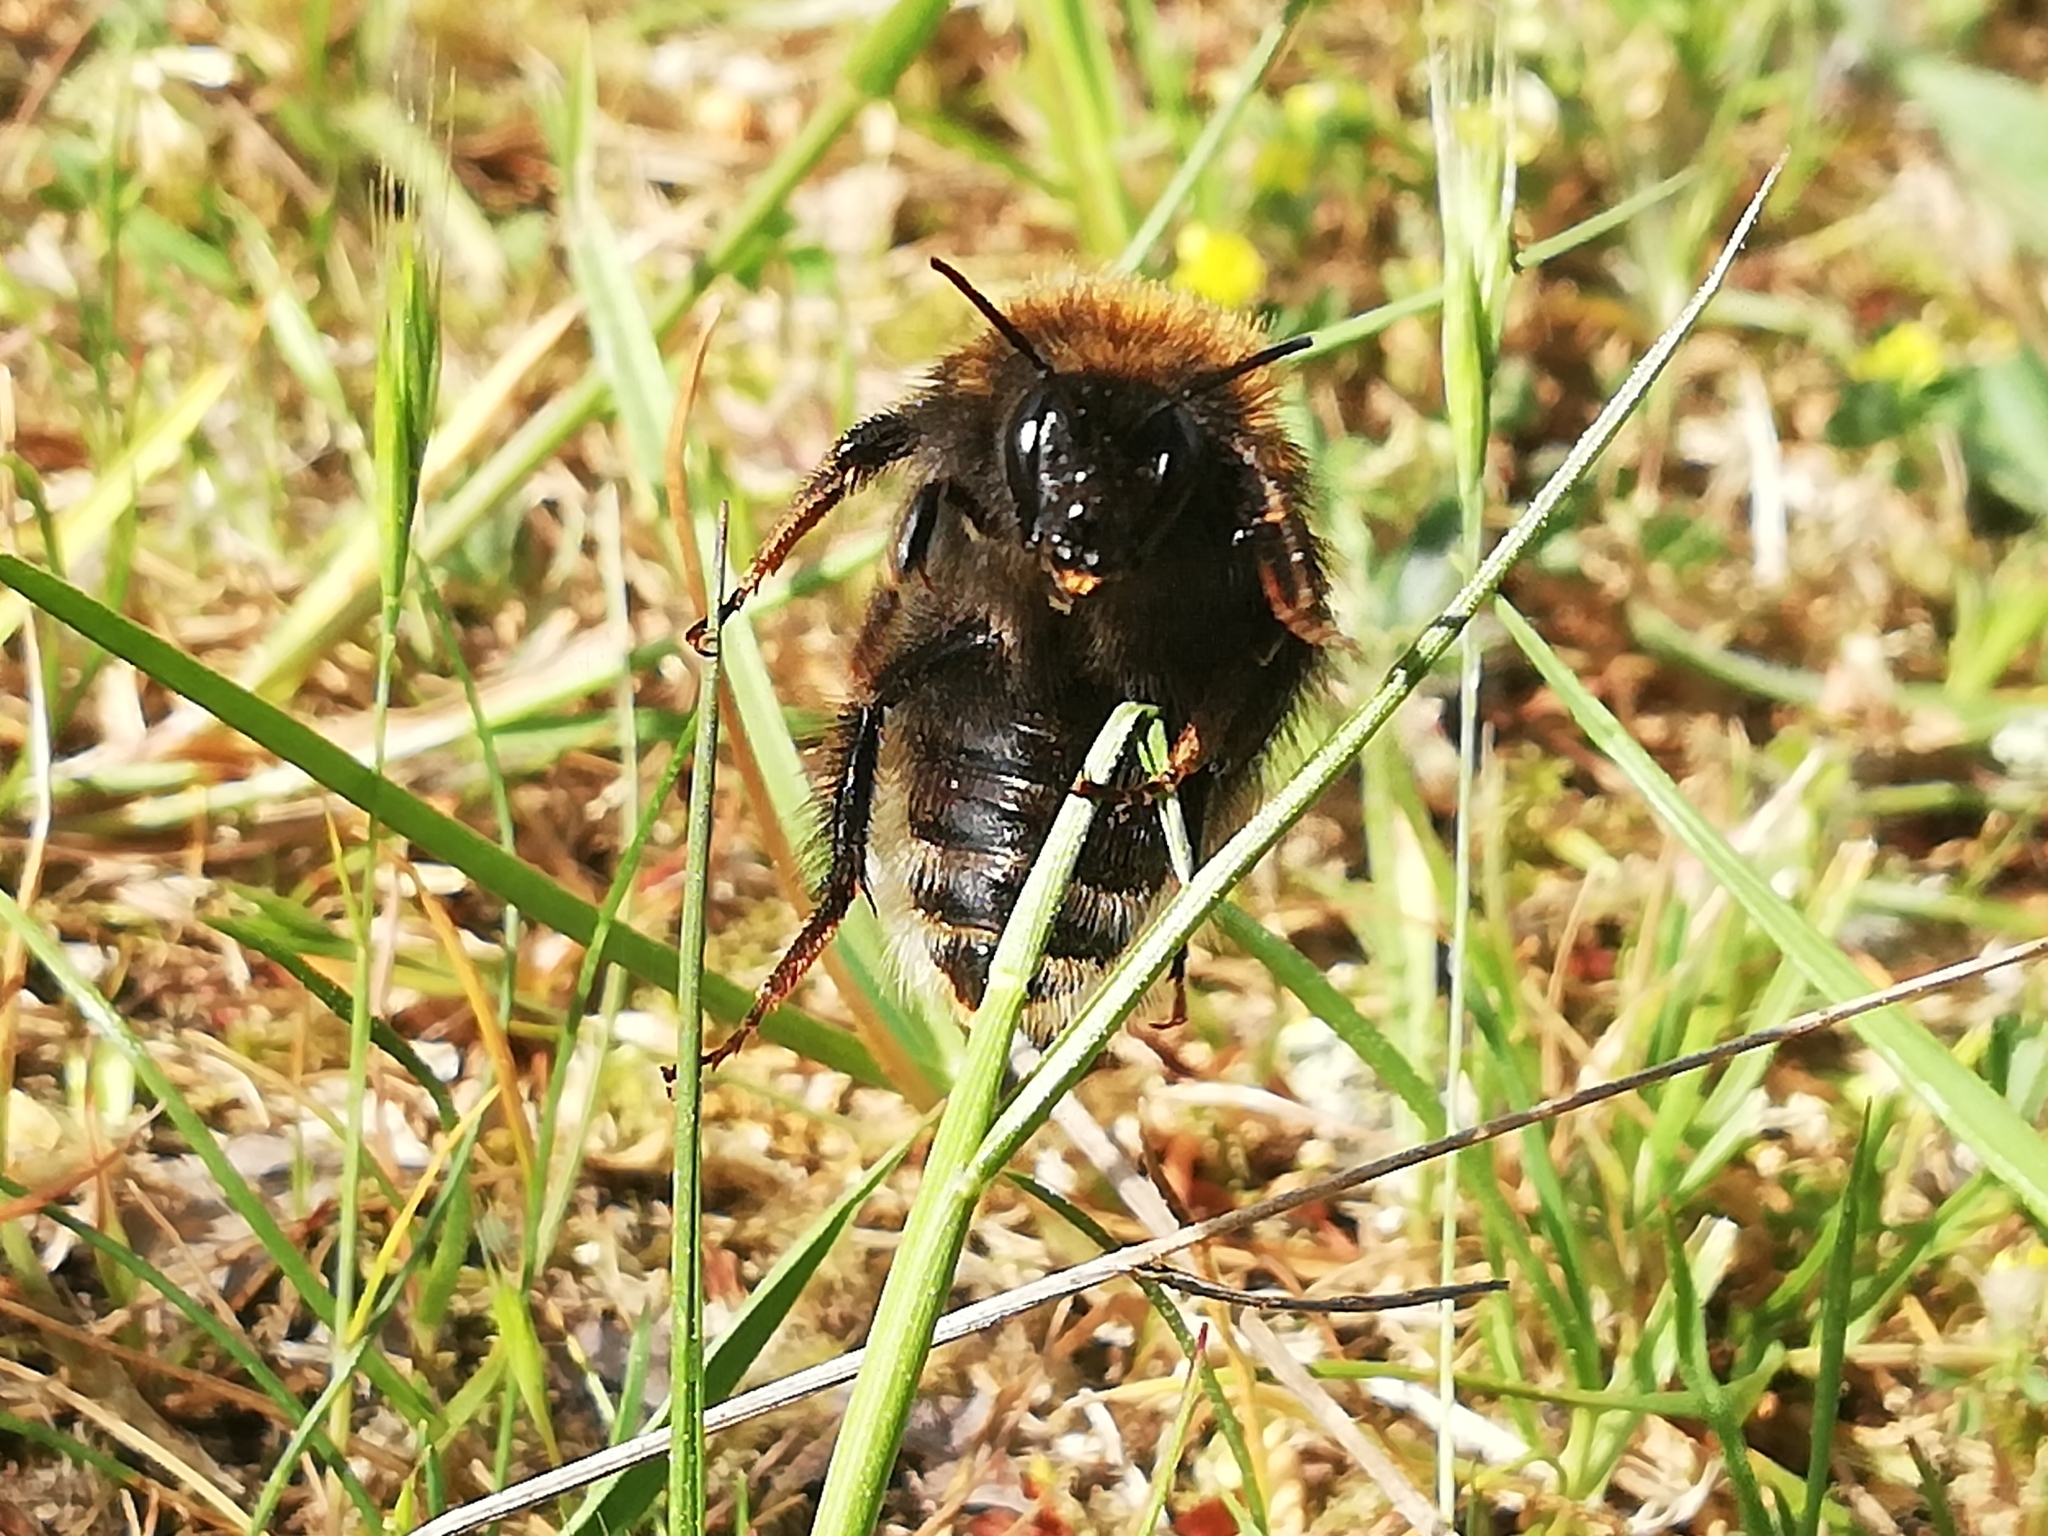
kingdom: Animalia
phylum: Arthropoda
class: Insecta
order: Hymenoptera
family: Apidae
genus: Bombus
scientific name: Bombus hypnorum
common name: New garden bumblebee
